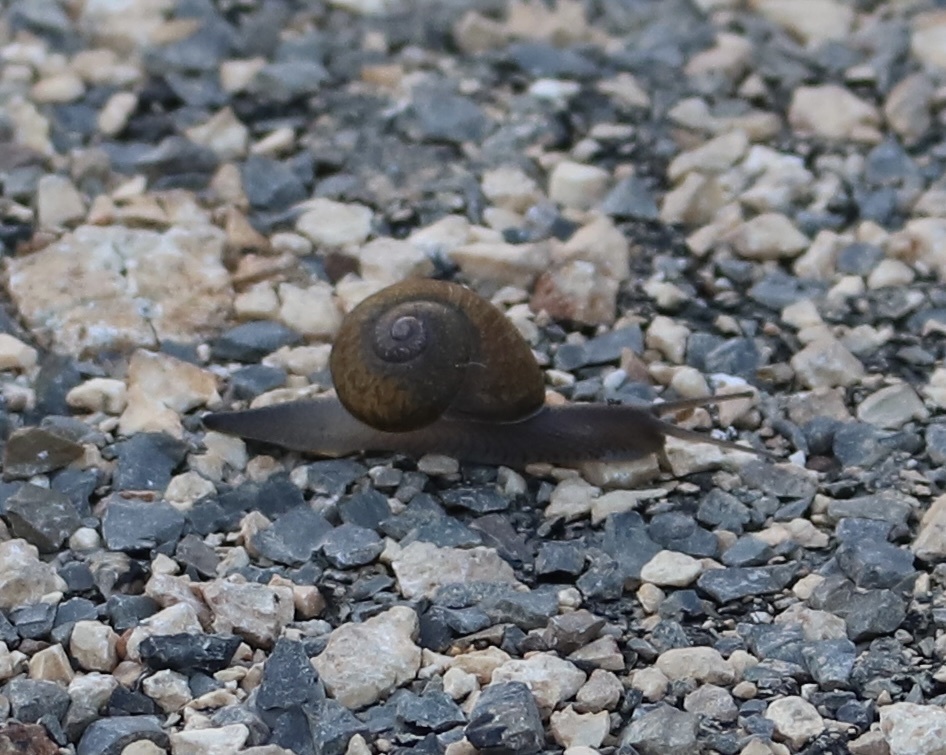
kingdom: Animalia
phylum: Mollusca
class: Gastropoda
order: Stylommatophora
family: Zachrysiidae
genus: Zachrysia
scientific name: Zachrysia provisoria
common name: Garden zachrysia
